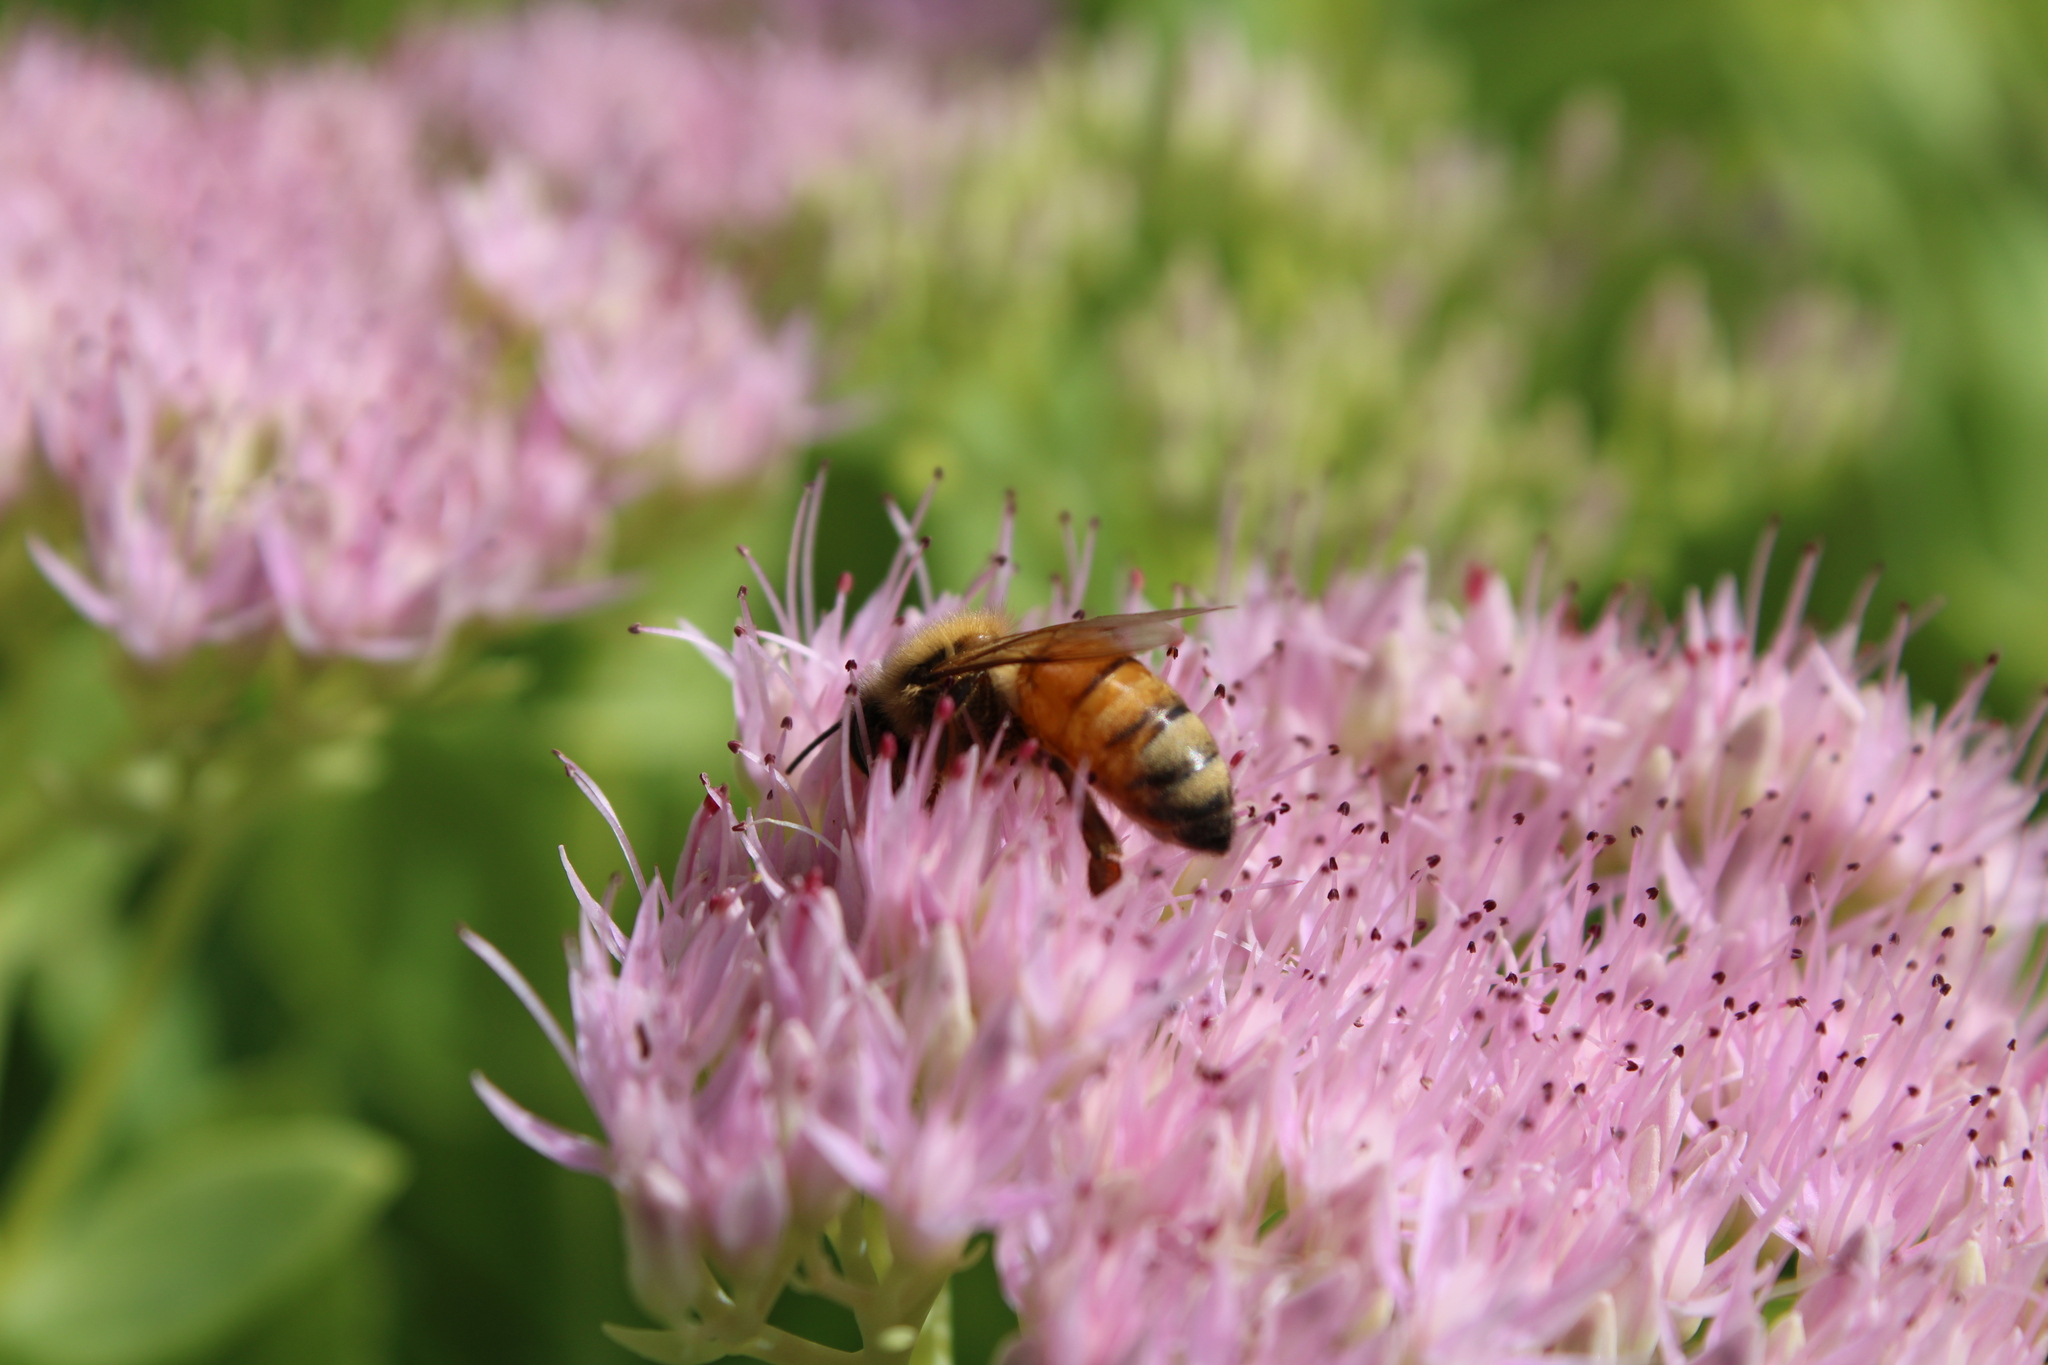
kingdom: Animalia
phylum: Arthropoda
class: Insecta
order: Hymenoptera
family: Apidae
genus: Apis
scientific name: Apis mellifera
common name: Honey bee
